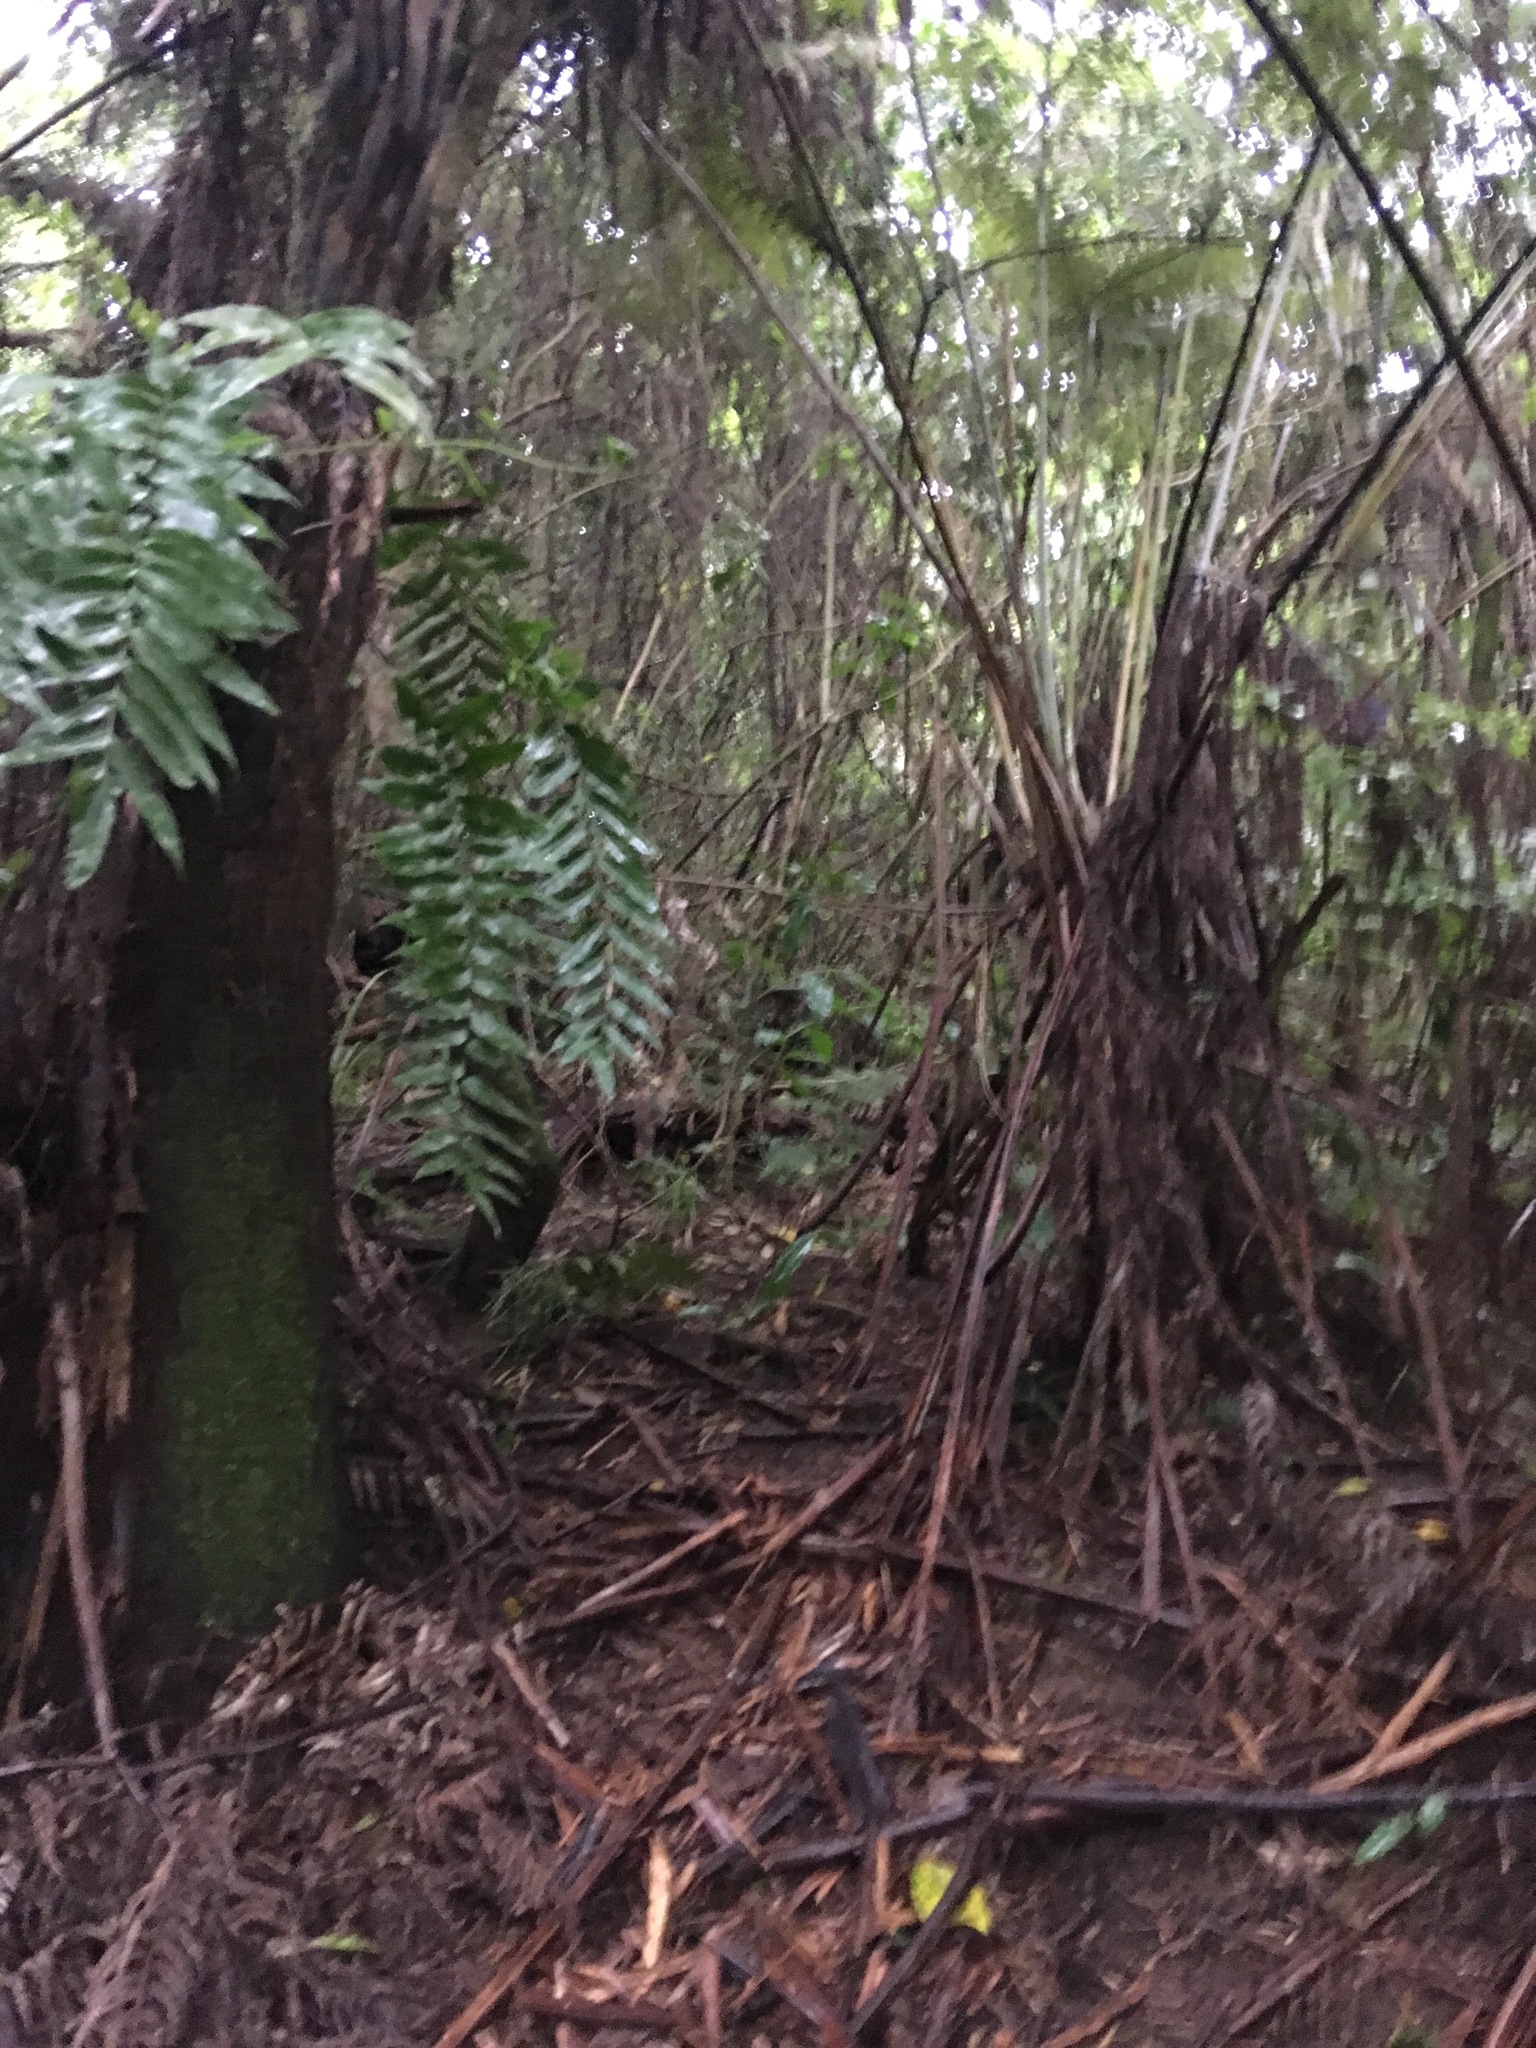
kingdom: Plantae
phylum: Tracheophyta
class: Polypodiopsida
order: Polypodiales
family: Aspleniaceae
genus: Asplenium
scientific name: Asplenium oblongifolium
